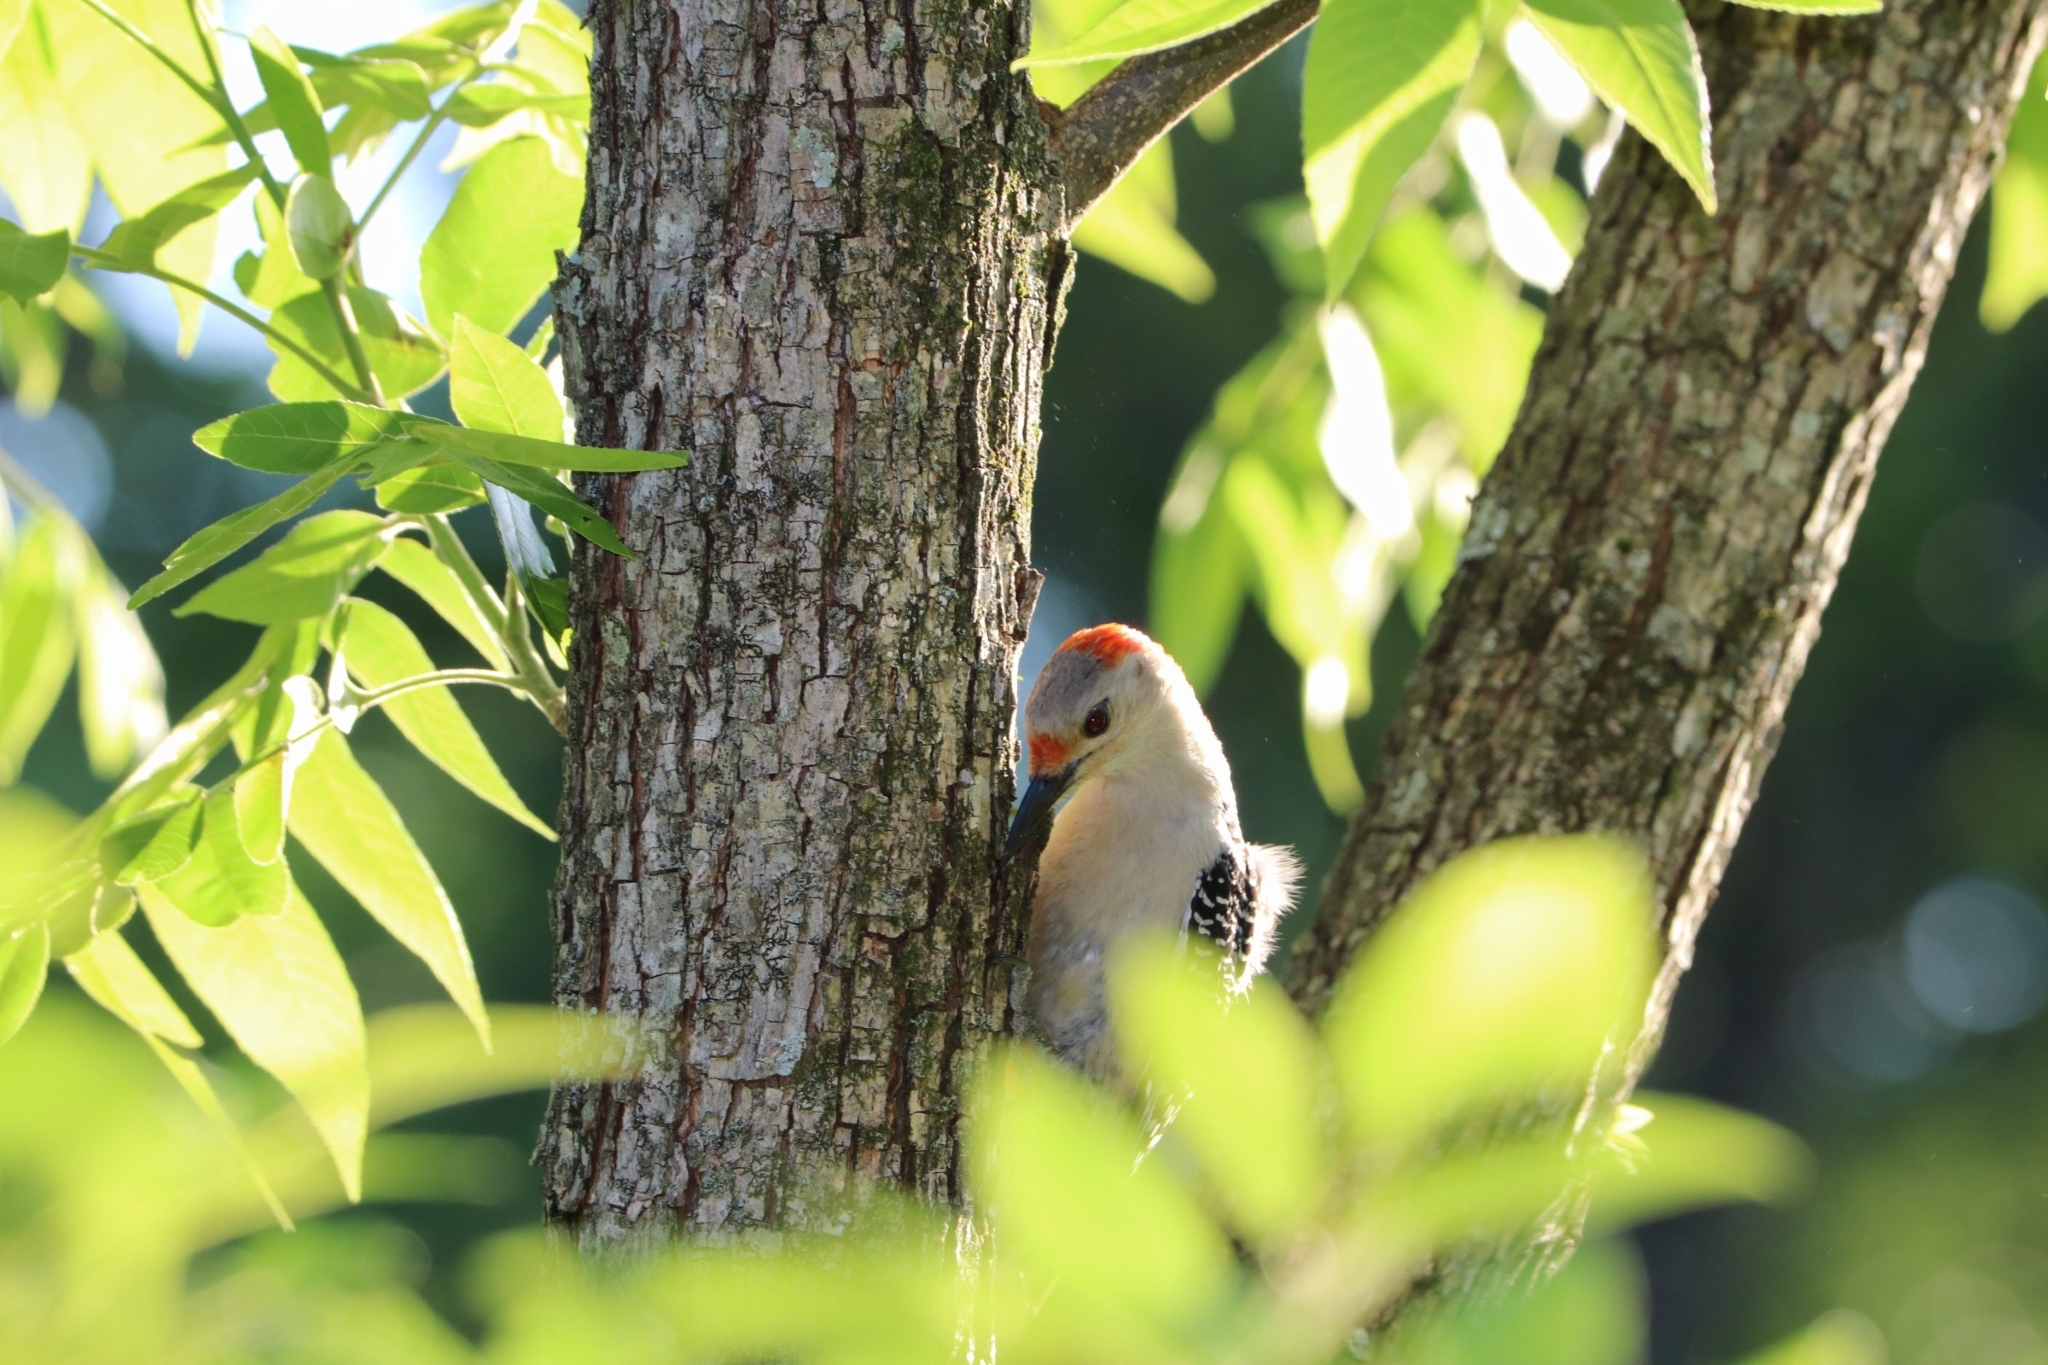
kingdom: Animalia
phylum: Chordata
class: Aves
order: Piciformes
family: Picidae
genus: Melanerpes
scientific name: Melanerpes carolinus
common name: Red-bellied woodpecker
